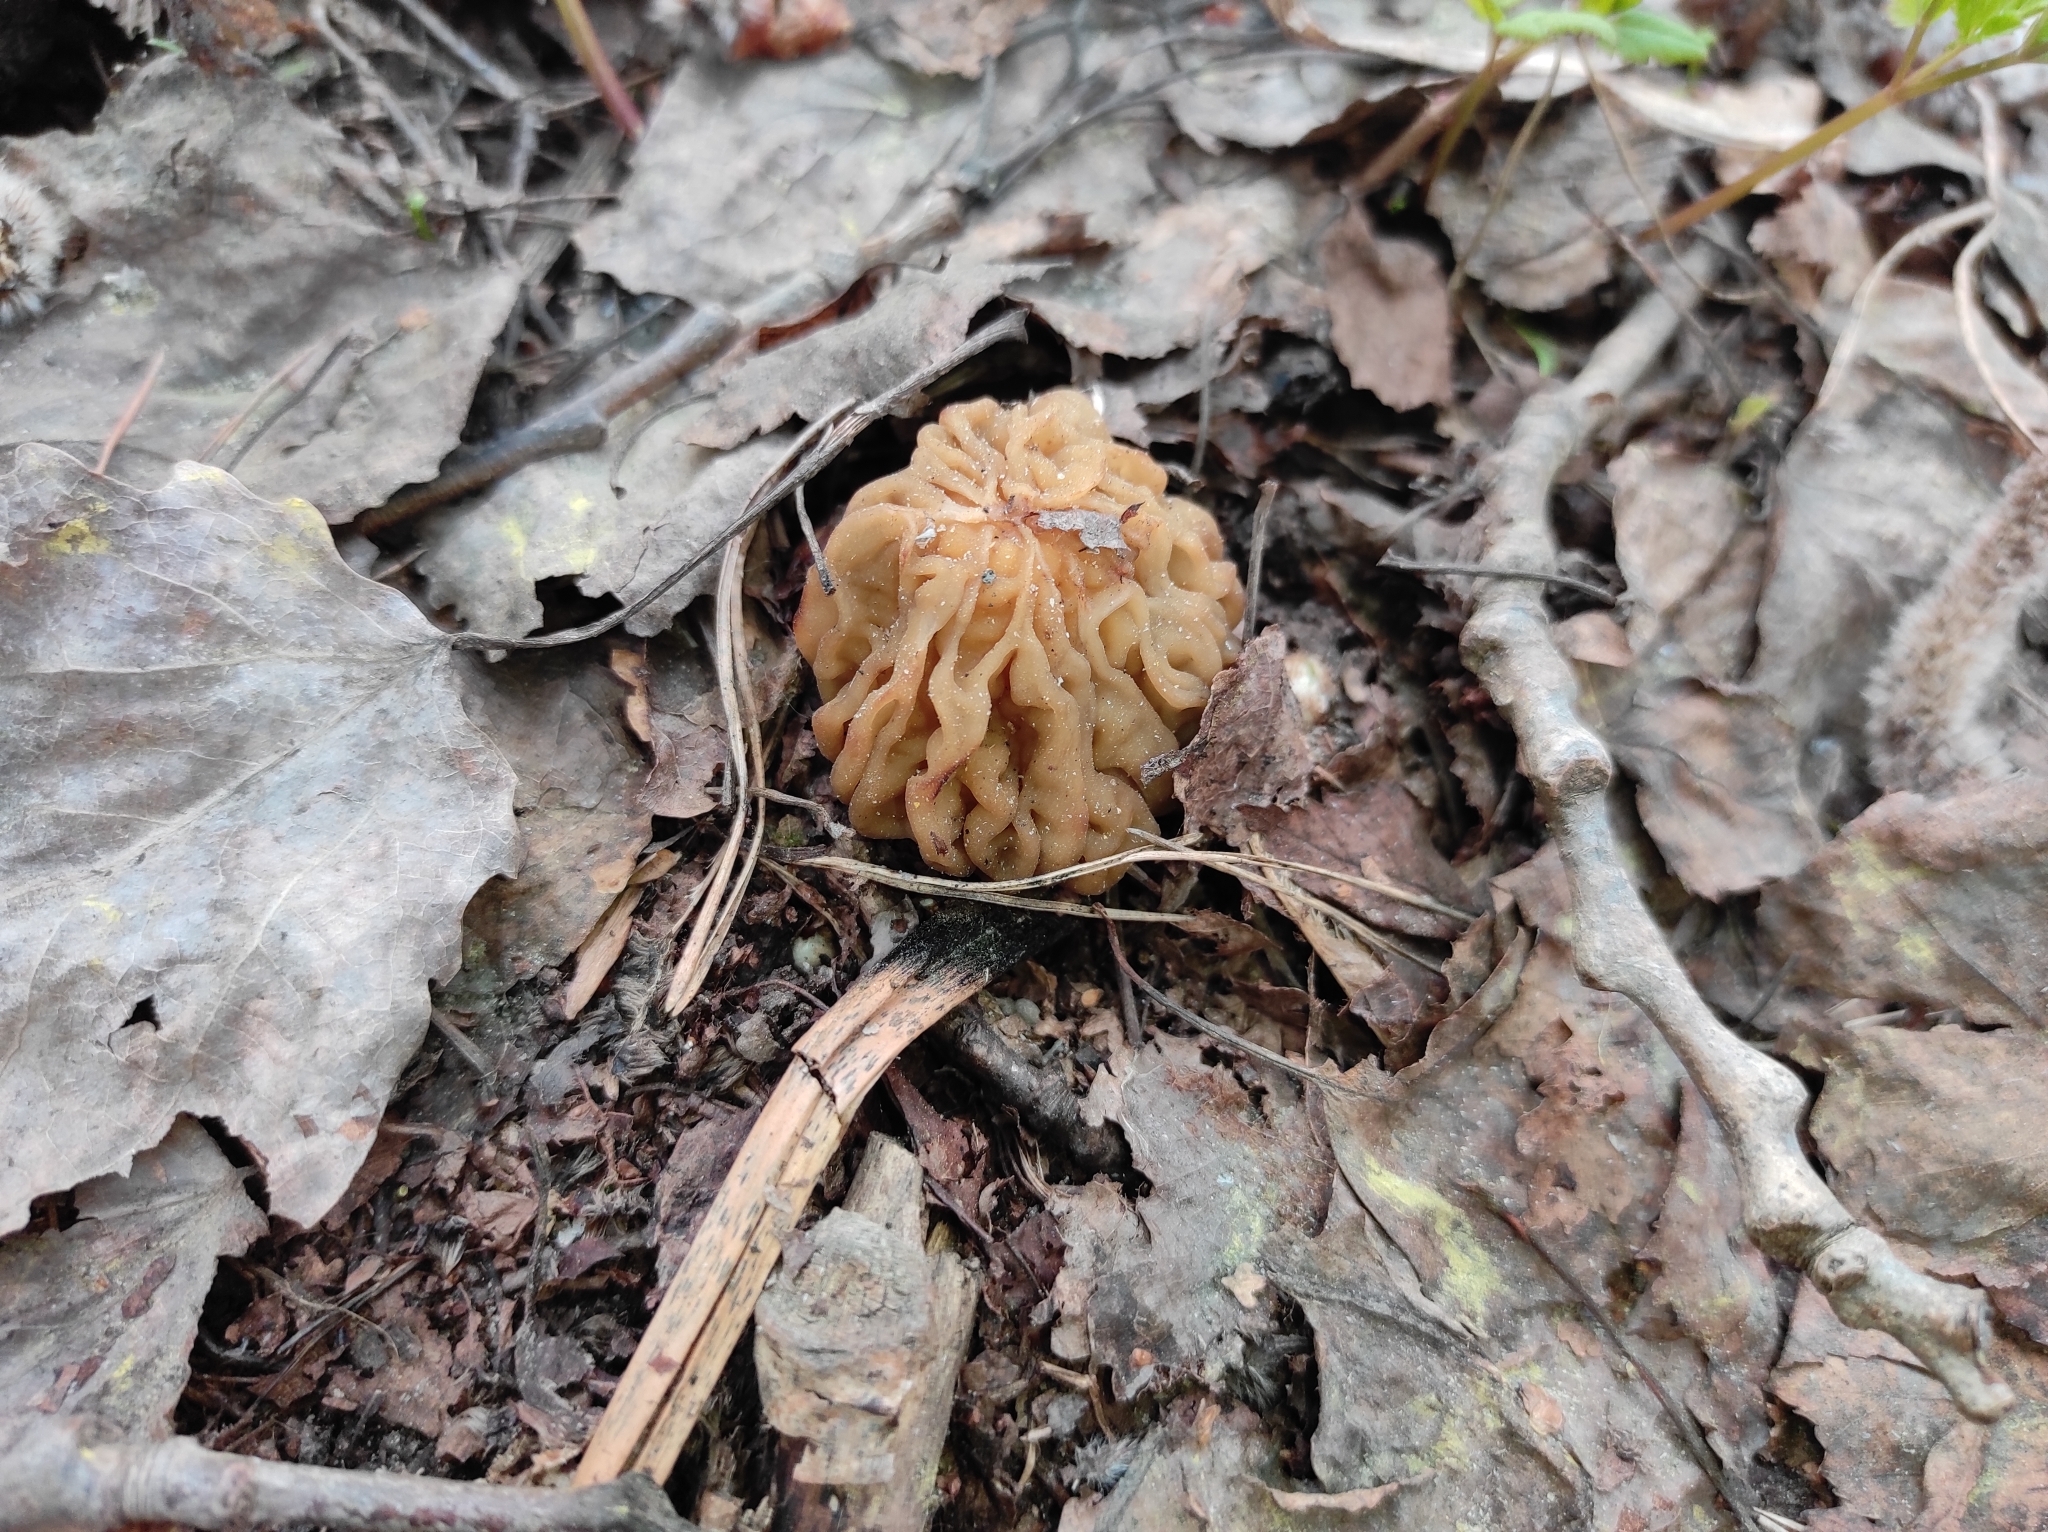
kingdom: Fungi
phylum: Ascomycota
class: Pezizomycetes
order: Pezizales
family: Morchellaceae
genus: Verpa
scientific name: Verpa bohemica
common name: Wrinkled thimble morel
